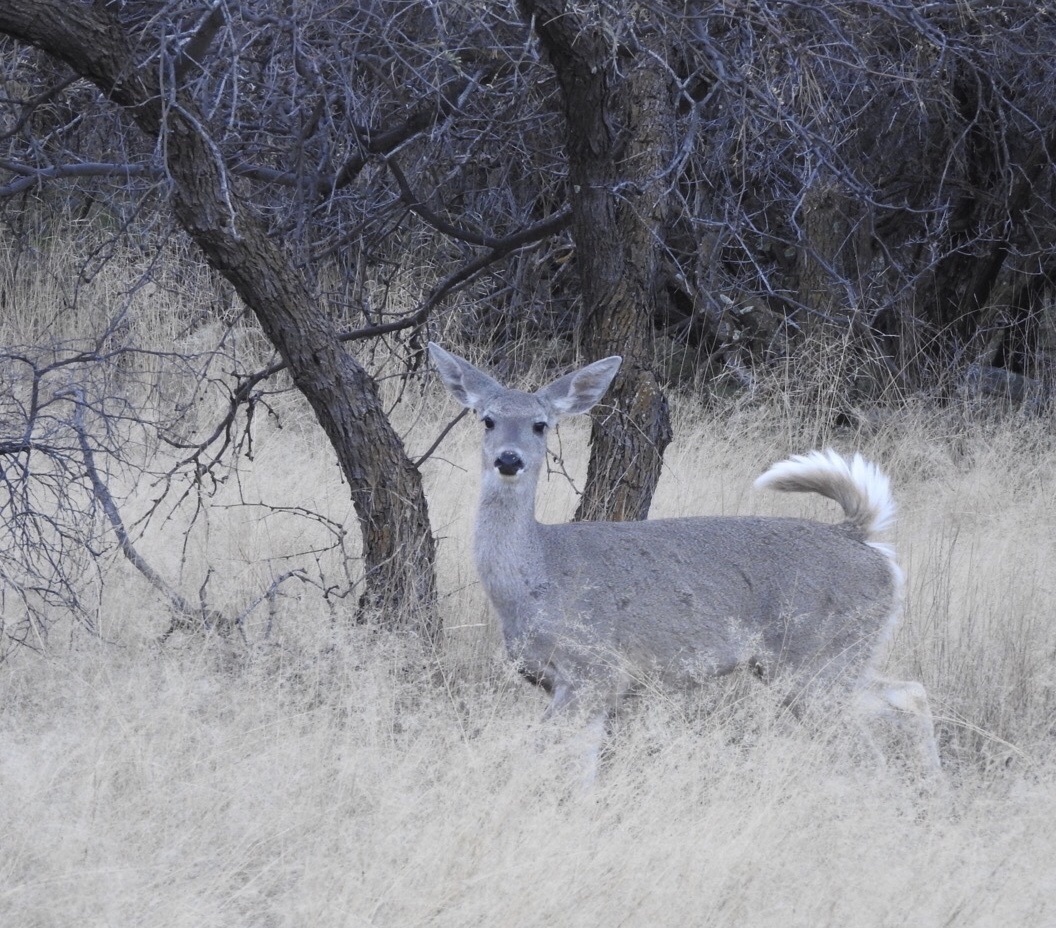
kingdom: Animalia
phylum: Chordata
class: Mammalia
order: Artiodactyla
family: Cervidae
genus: Odocoileus
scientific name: Odocoileus virginianus
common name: White-tailed deer
